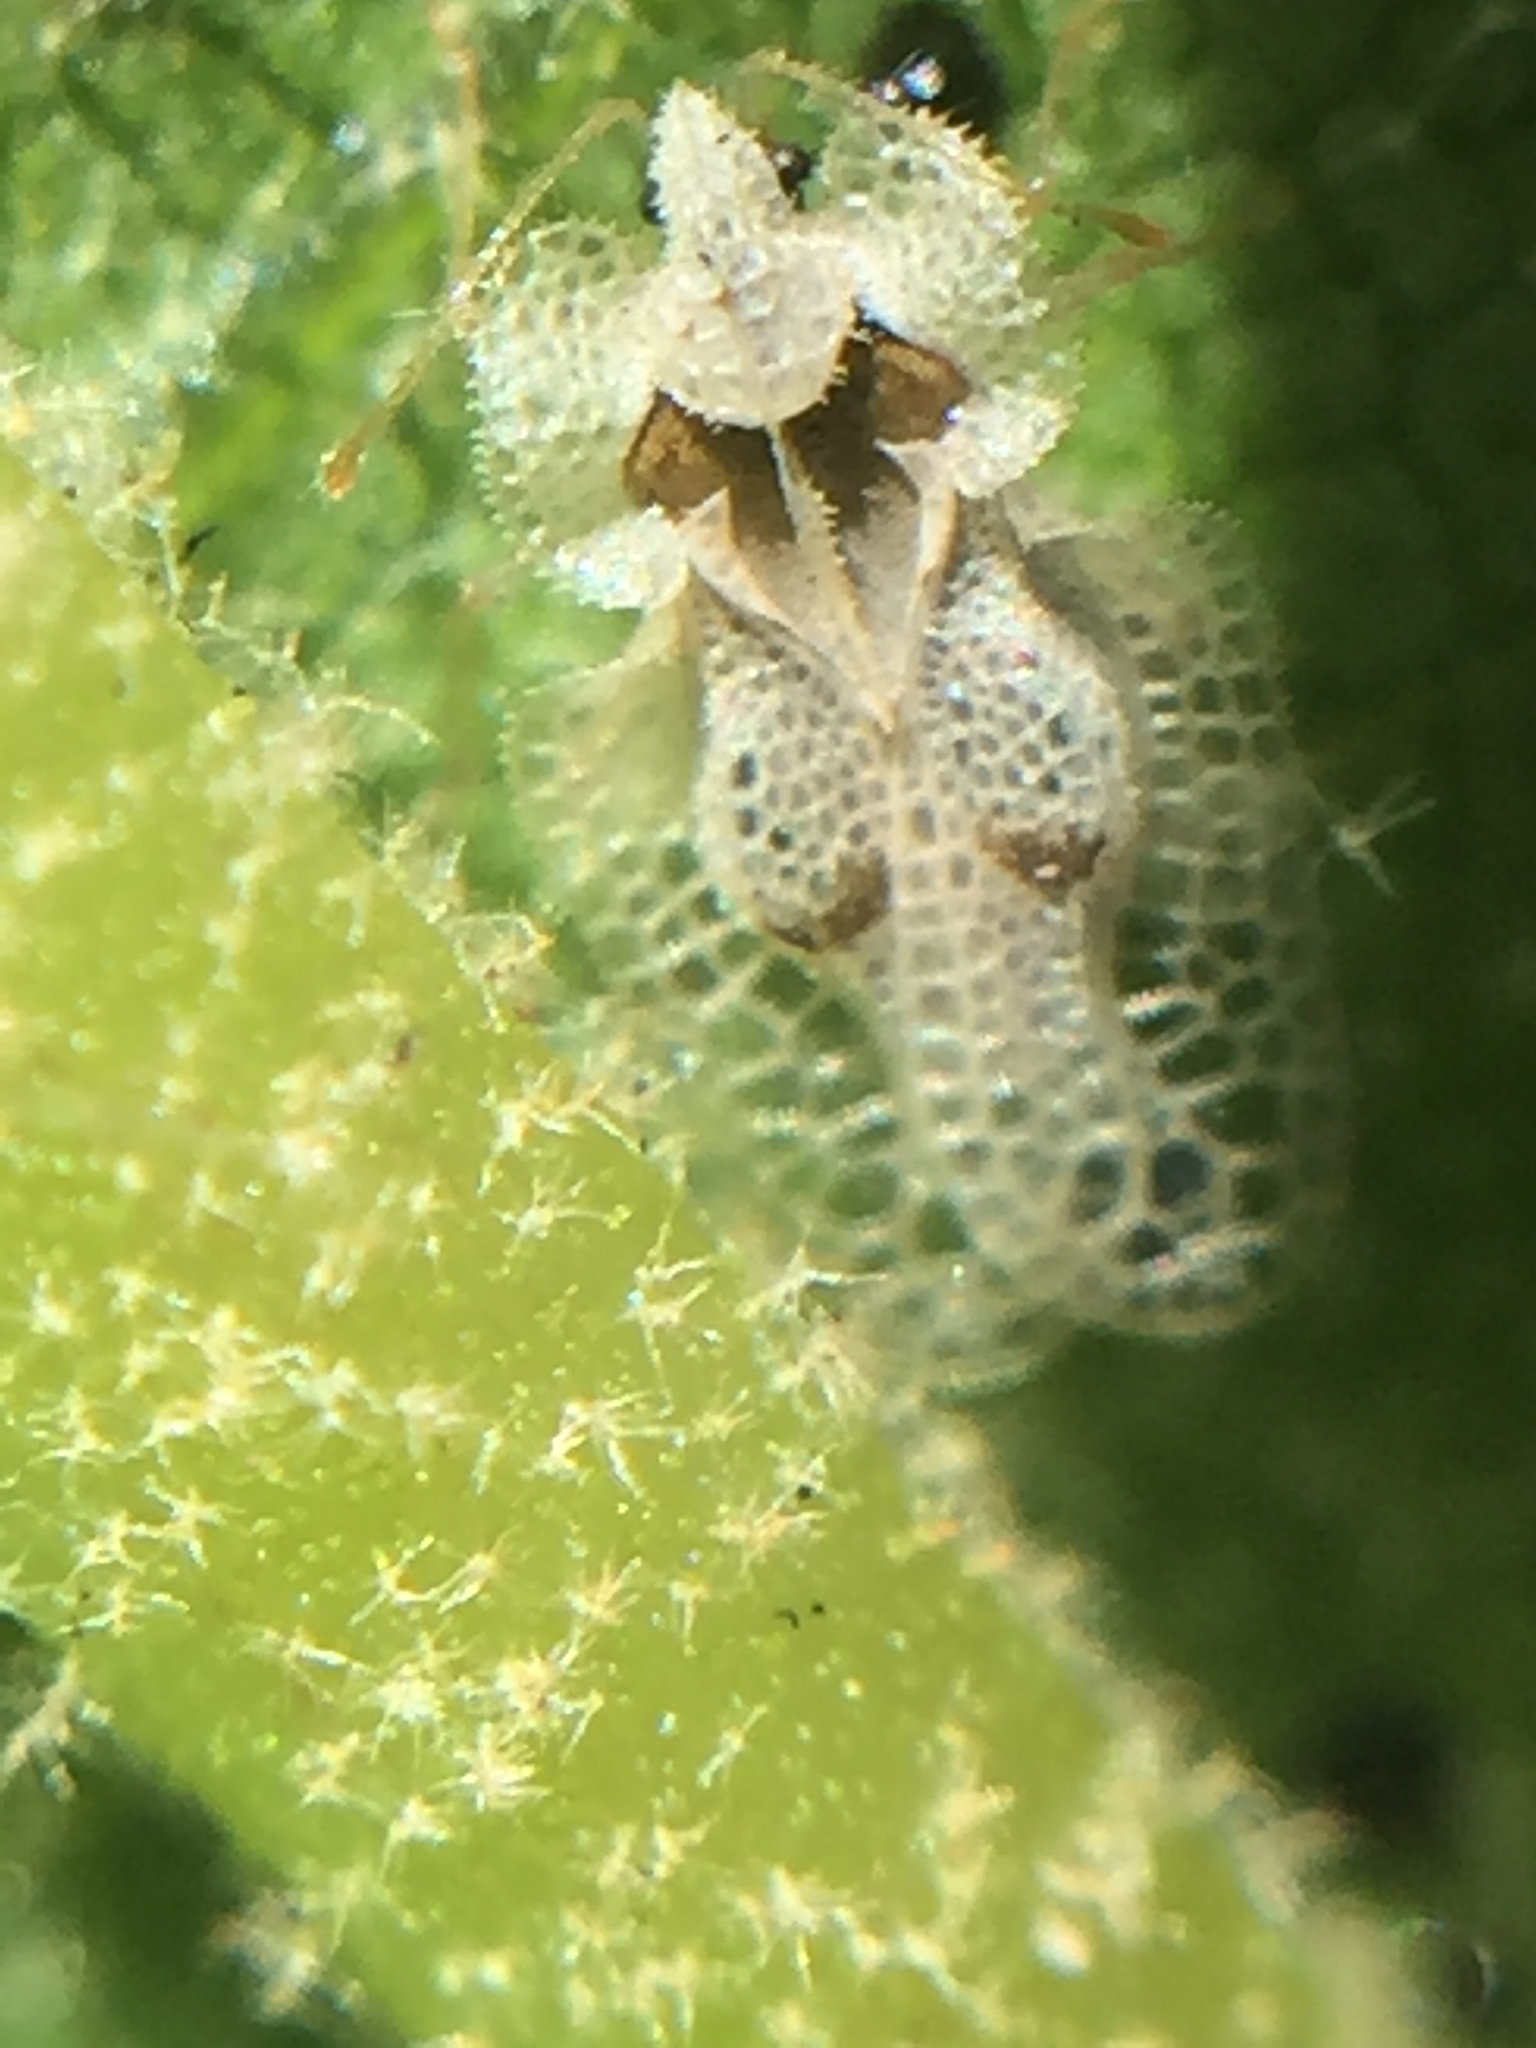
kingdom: Animalia
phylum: Arthropoda
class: Insecta
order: Hemiptera
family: Tingidae
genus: Corythucha
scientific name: Corythucha ciliata
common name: Sycamore lace bug
